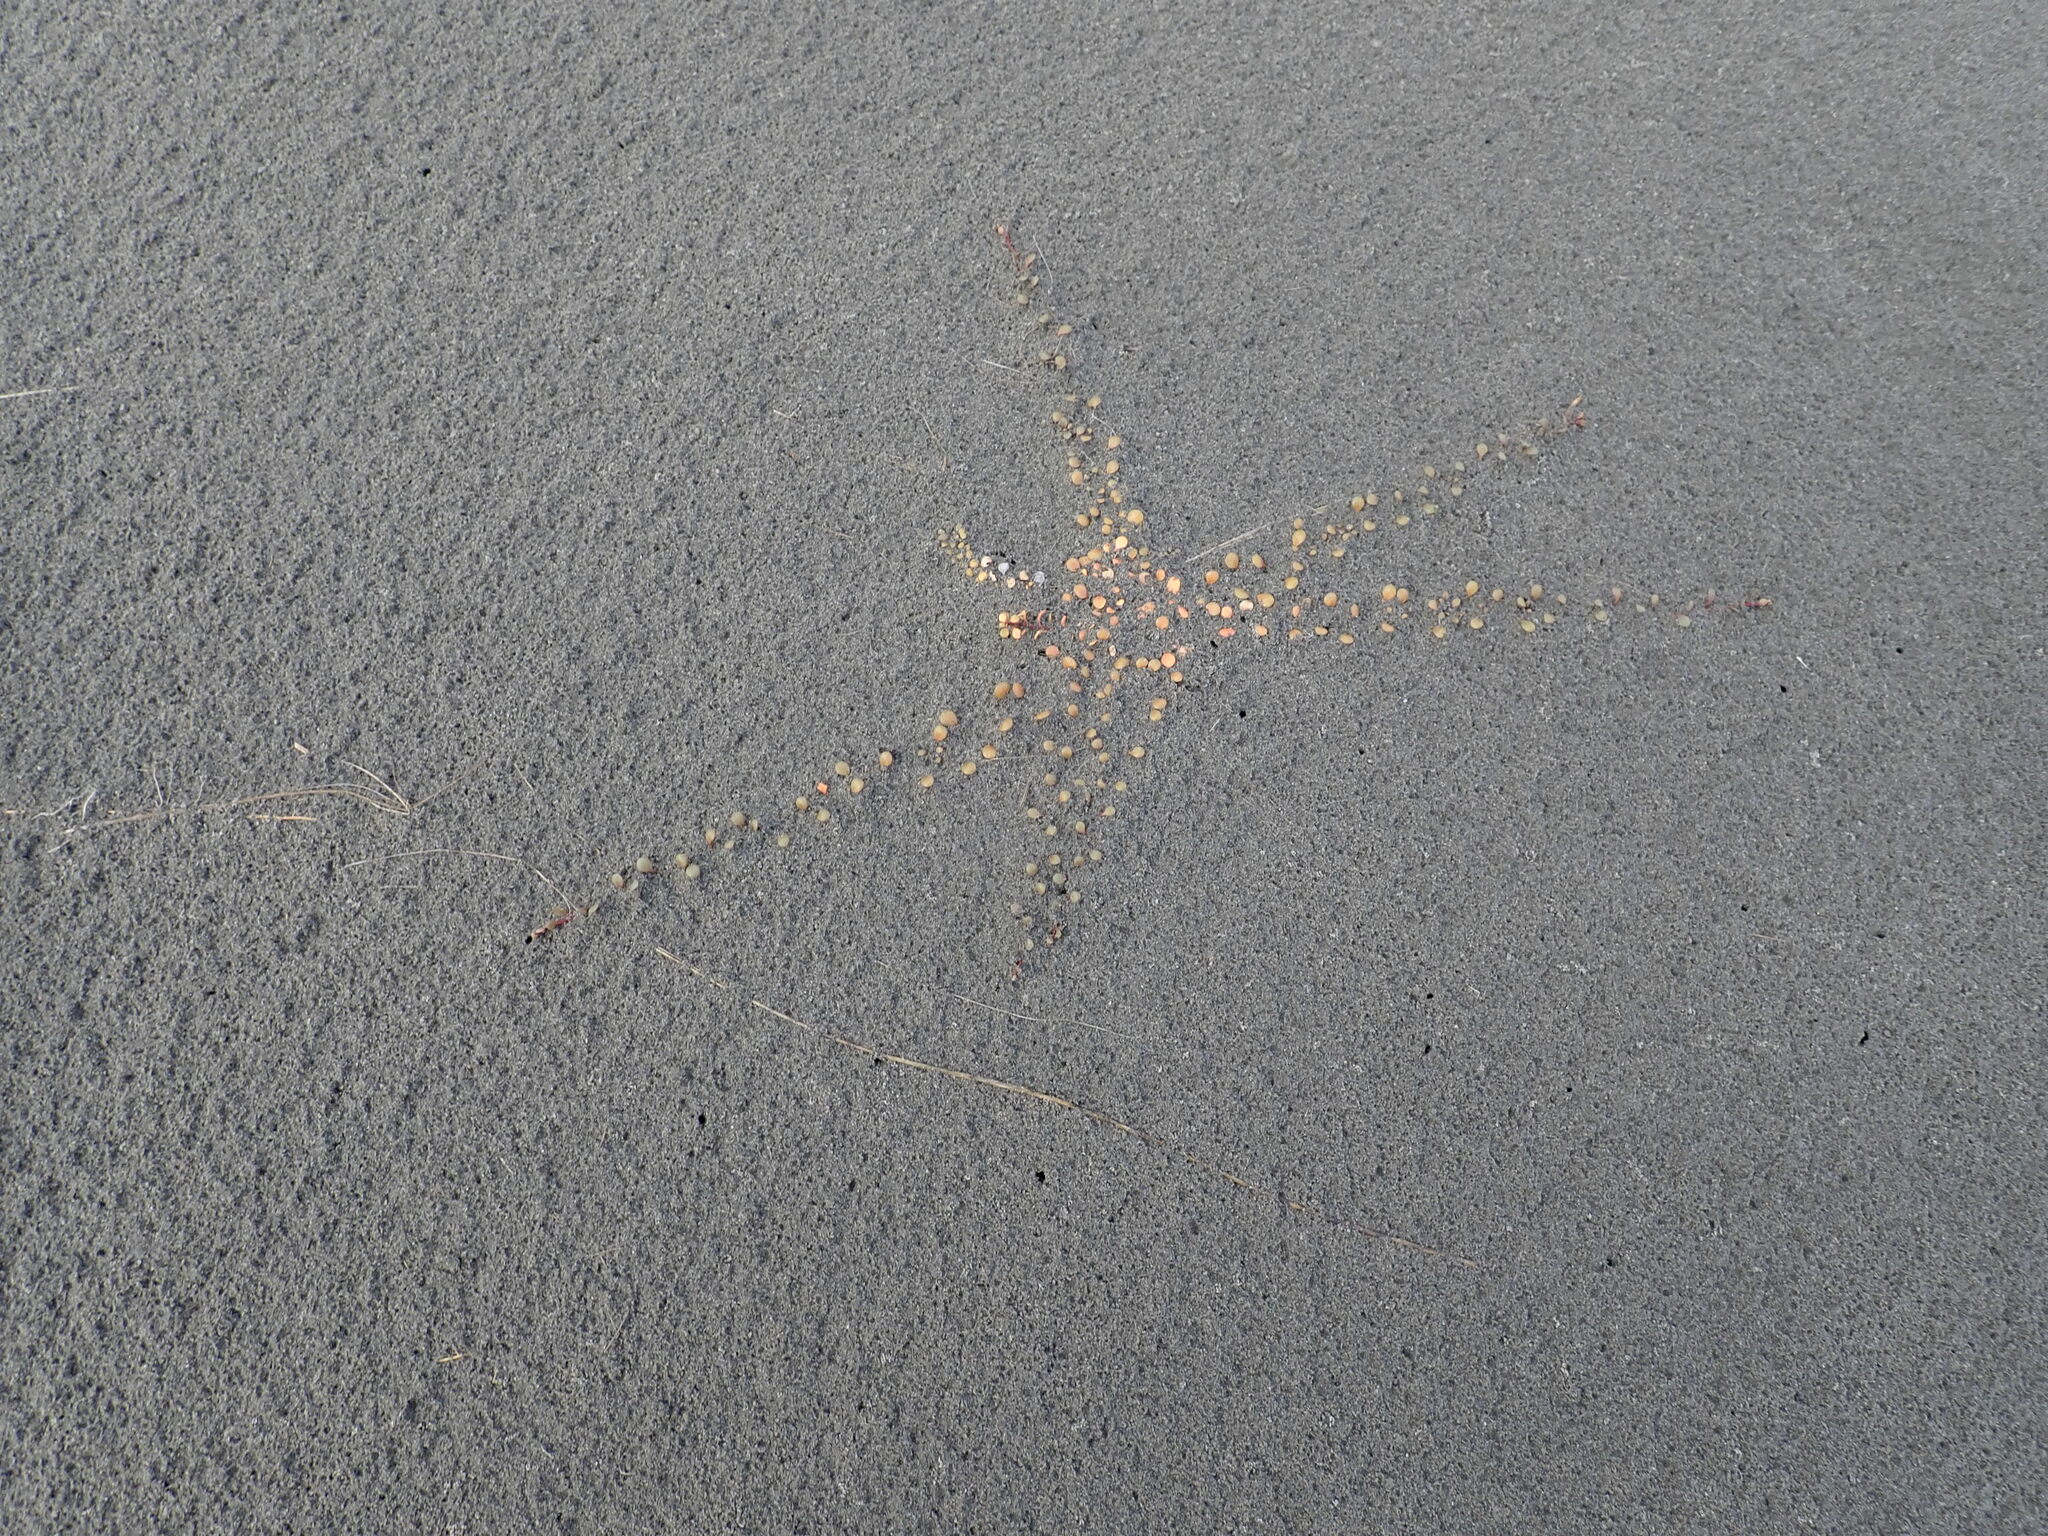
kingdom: Plantae
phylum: Tracheophyta
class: Magnoliopsida
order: Ericales
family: Primulaceae
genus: Samolus
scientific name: Samolus repens
